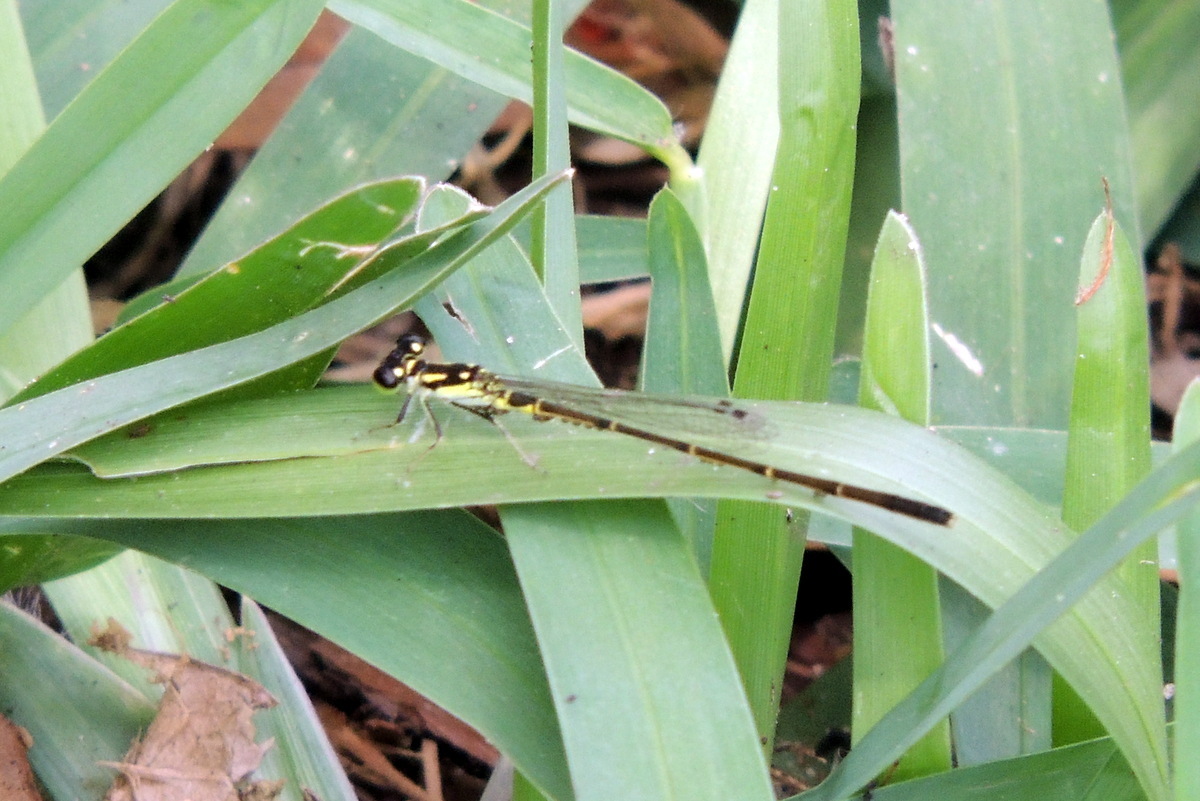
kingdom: Animalia
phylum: Arthropoda
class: Insecta
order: Odonata
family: Coenagrionidae
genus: Ischnura
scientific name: Ischnura posita
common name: Fragile forktail
